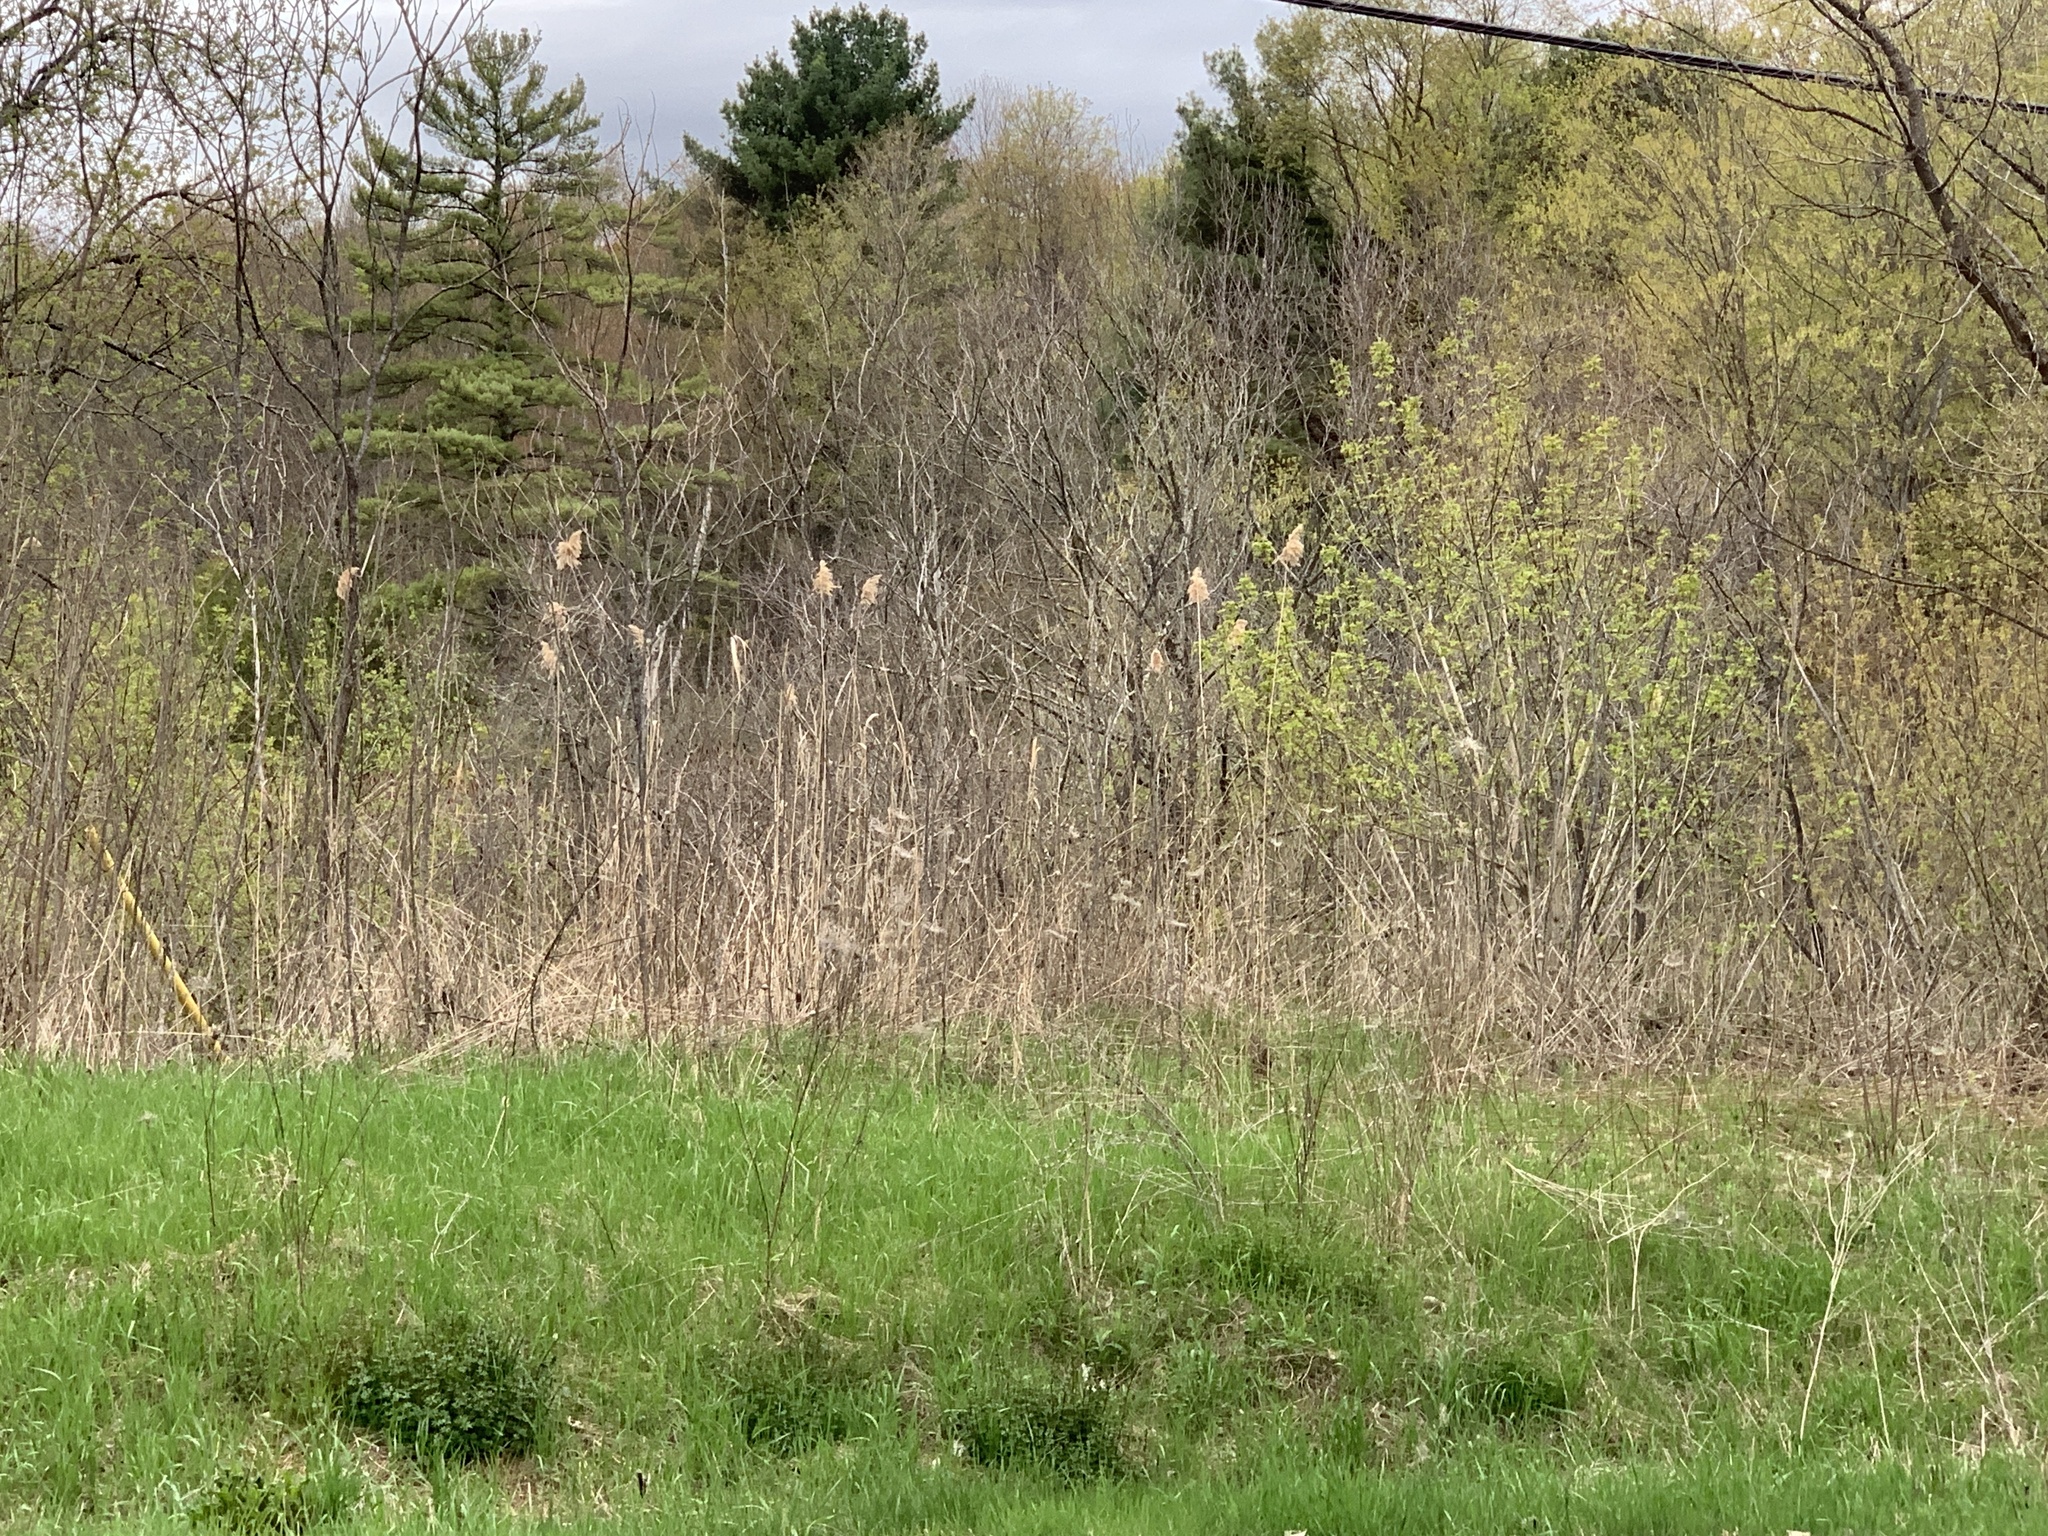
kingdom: Plantae
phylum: Tracheophyta
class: Liliopsida
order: Poales
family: Poaceae
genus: Phragmites
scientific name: Phragmites australis
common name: Common reed
